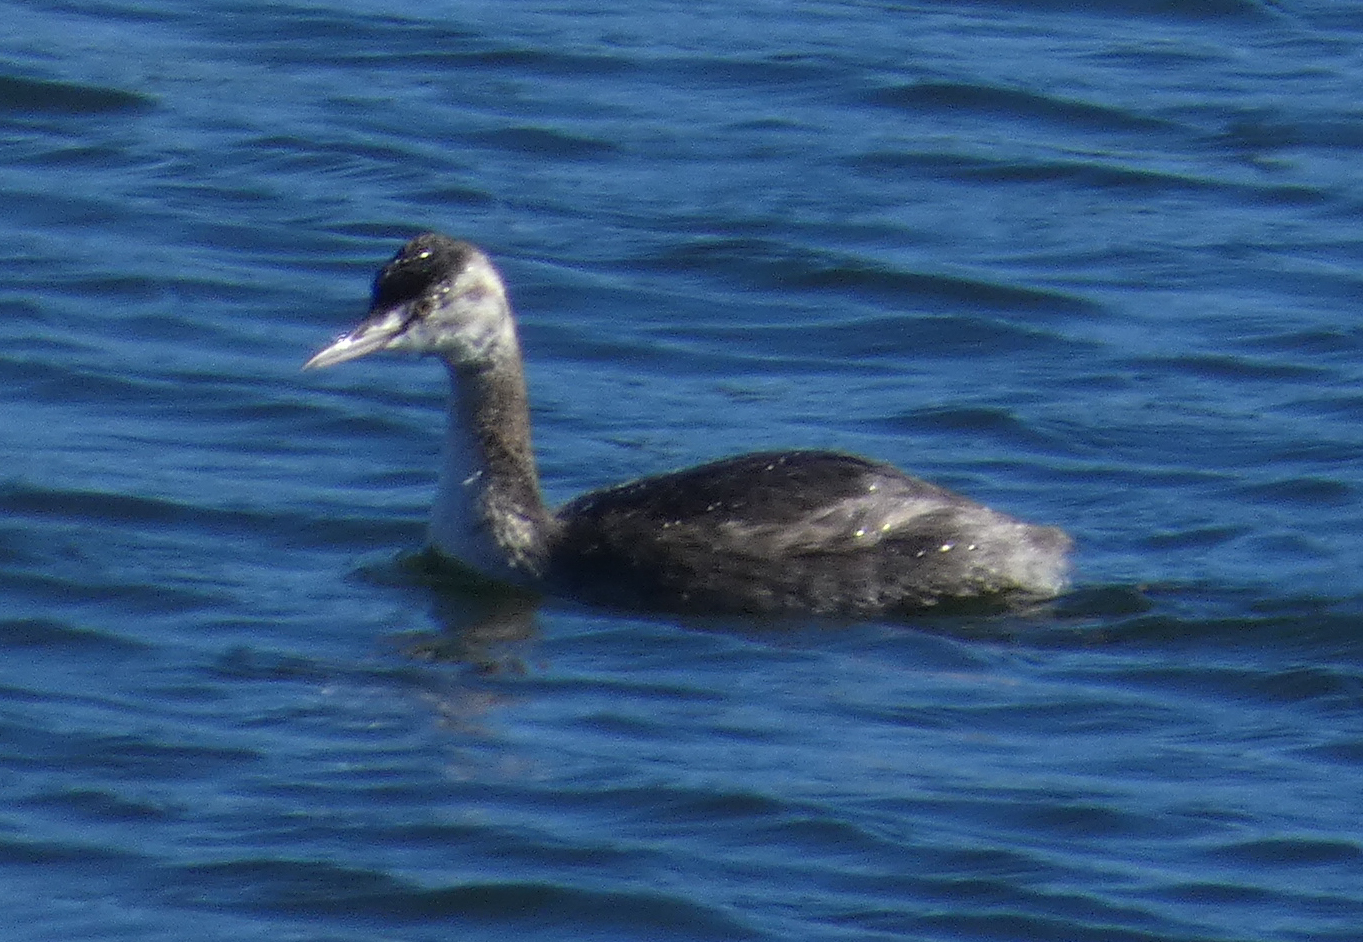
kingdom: Animalia
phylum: Chordata
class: Aves
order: Podicipediformes
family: Podicipedidae
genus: Podiceps
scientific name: Podiceps cristatus
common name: Great crested grebe
